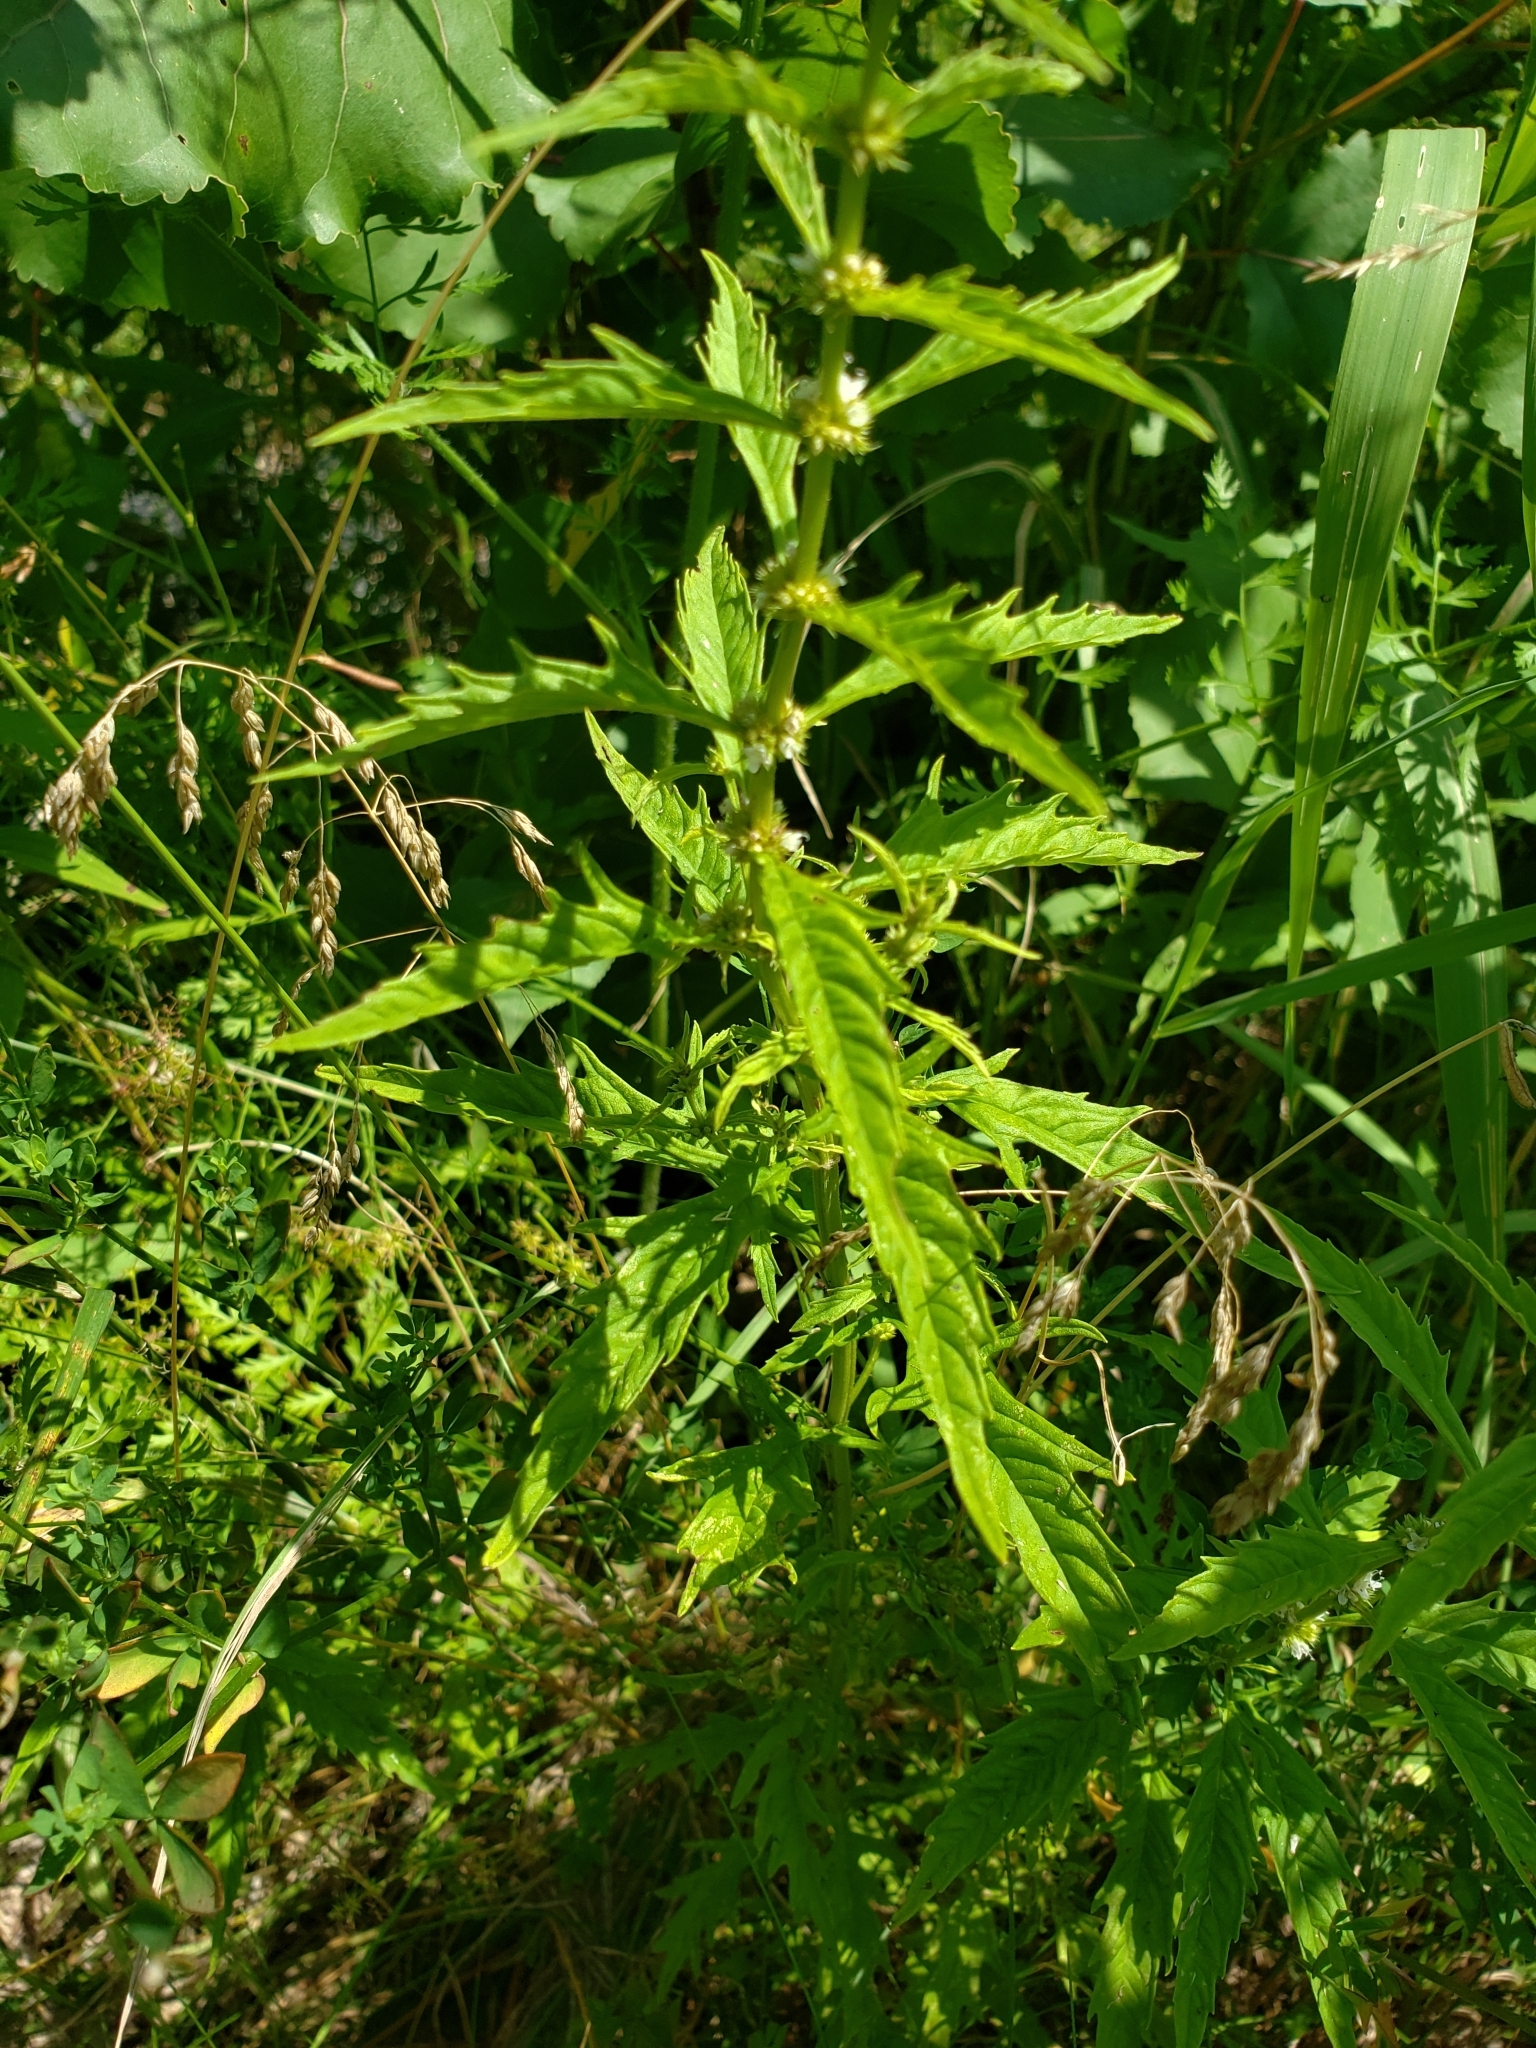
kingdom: Plantae
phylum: Tracheophyta
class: Magnoliopsida
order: Lamiales
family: Lamiaceae
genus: Lycopus
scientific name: Lycopus americanus
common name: American bugleweed
